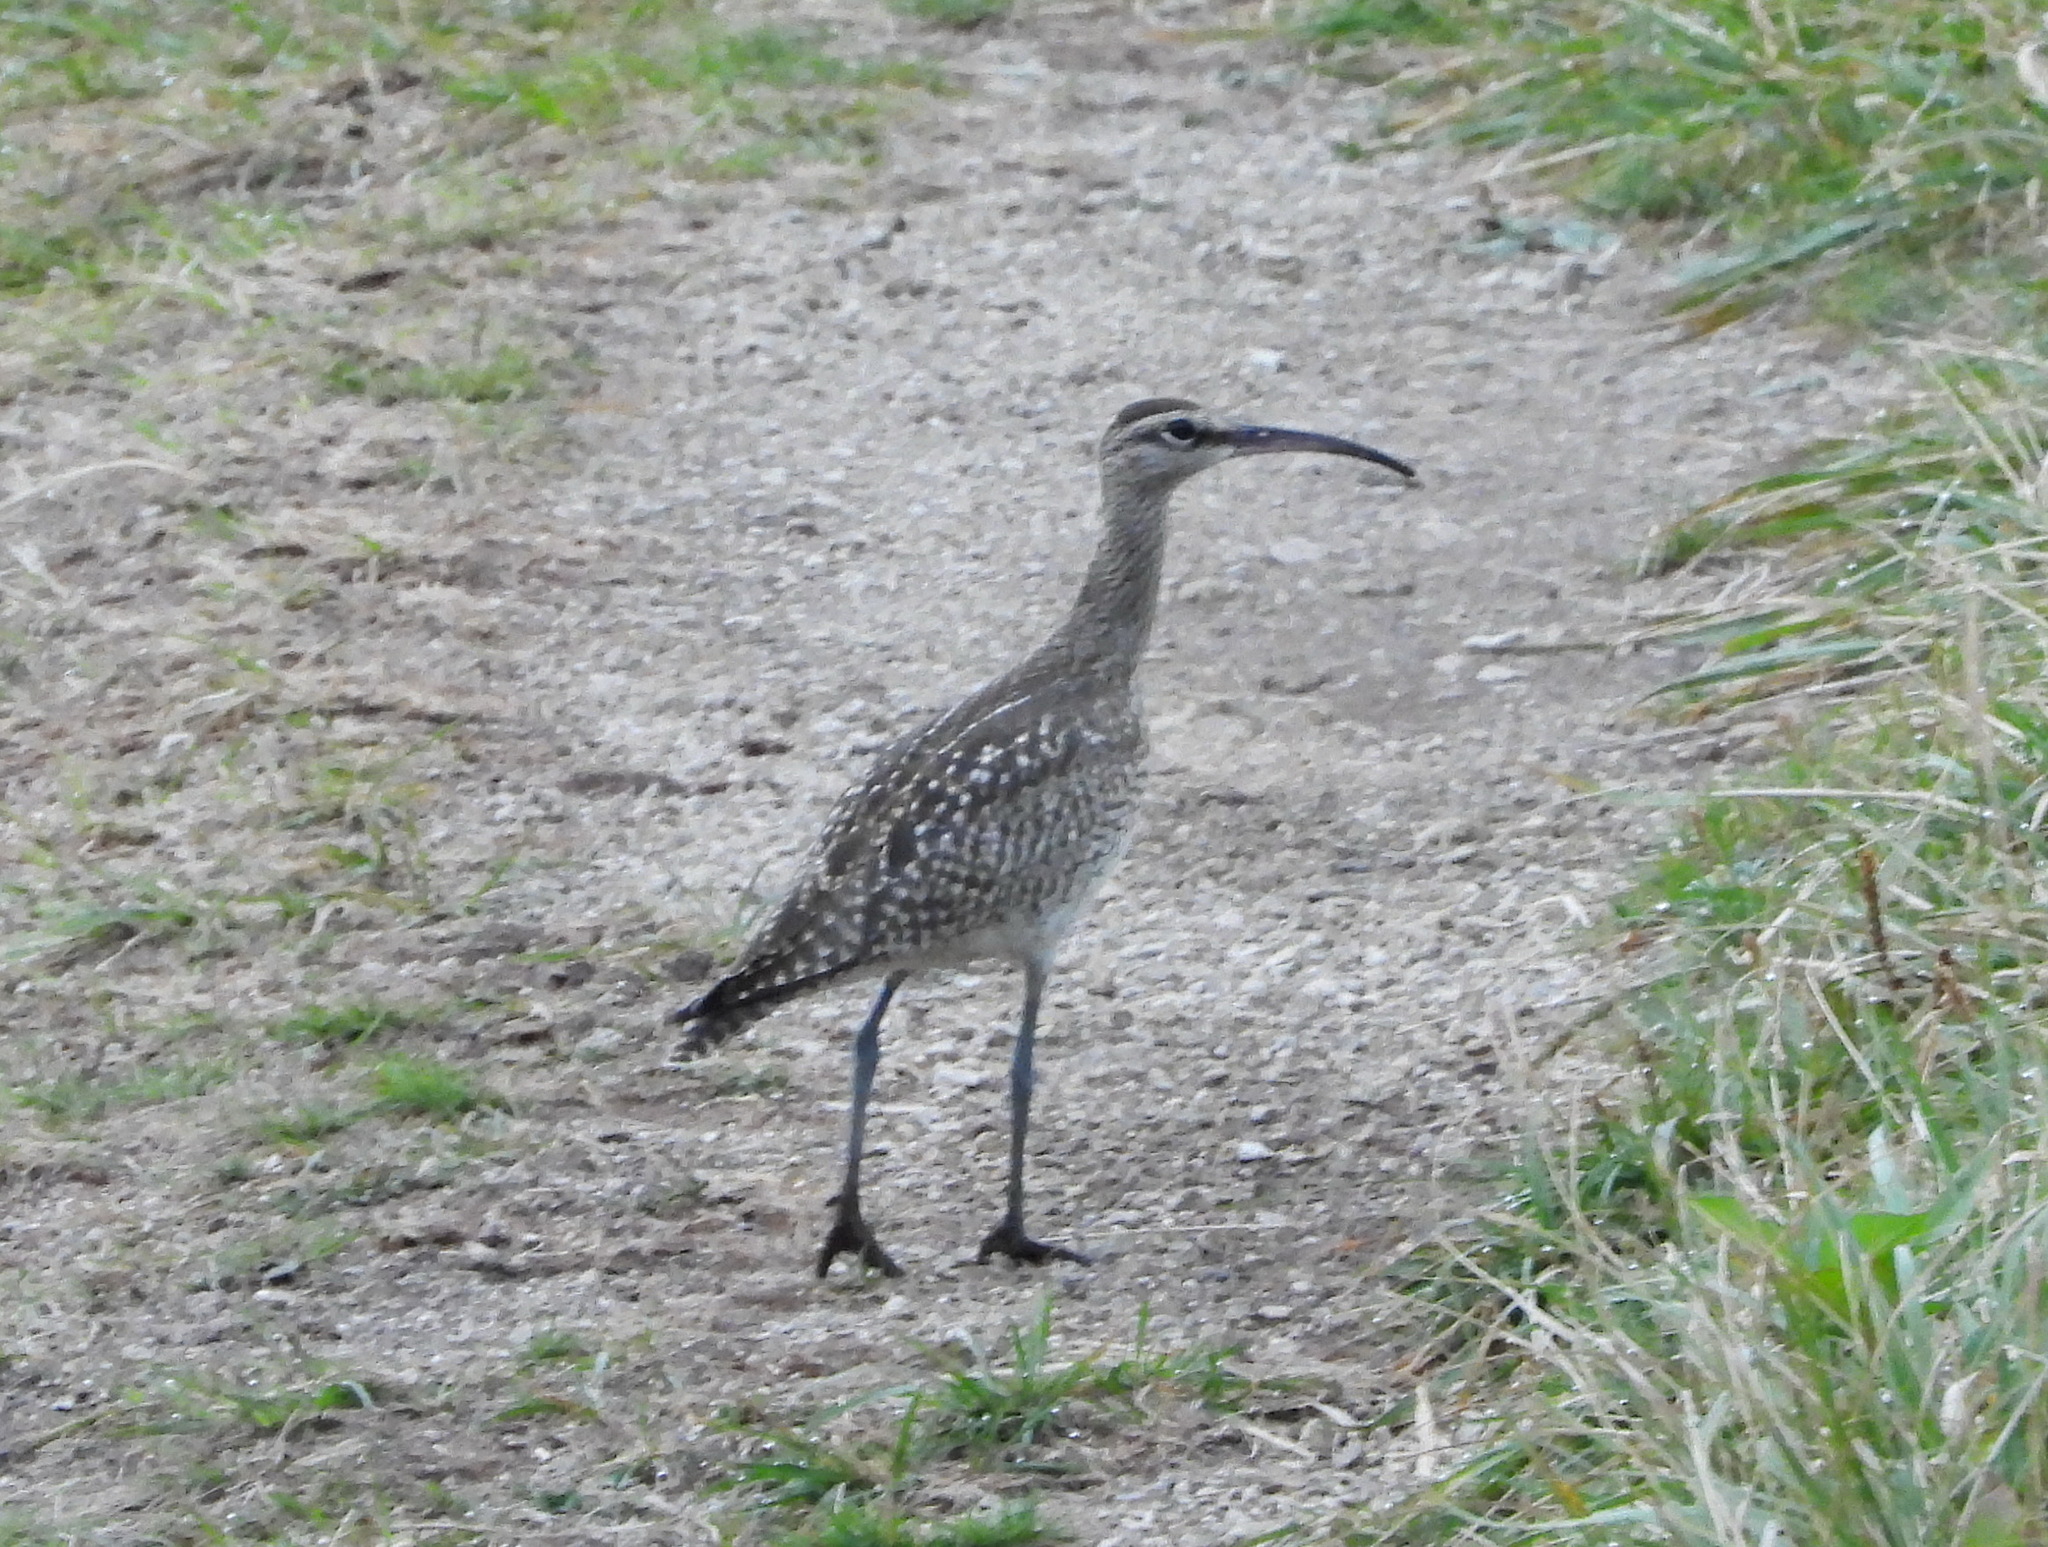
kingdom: Animalia
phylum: Chordata
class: Aves
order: Charadriiformes
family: Scolopacidae
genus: Numenius
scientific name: Numenius phaeopus
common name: Whimbrel
